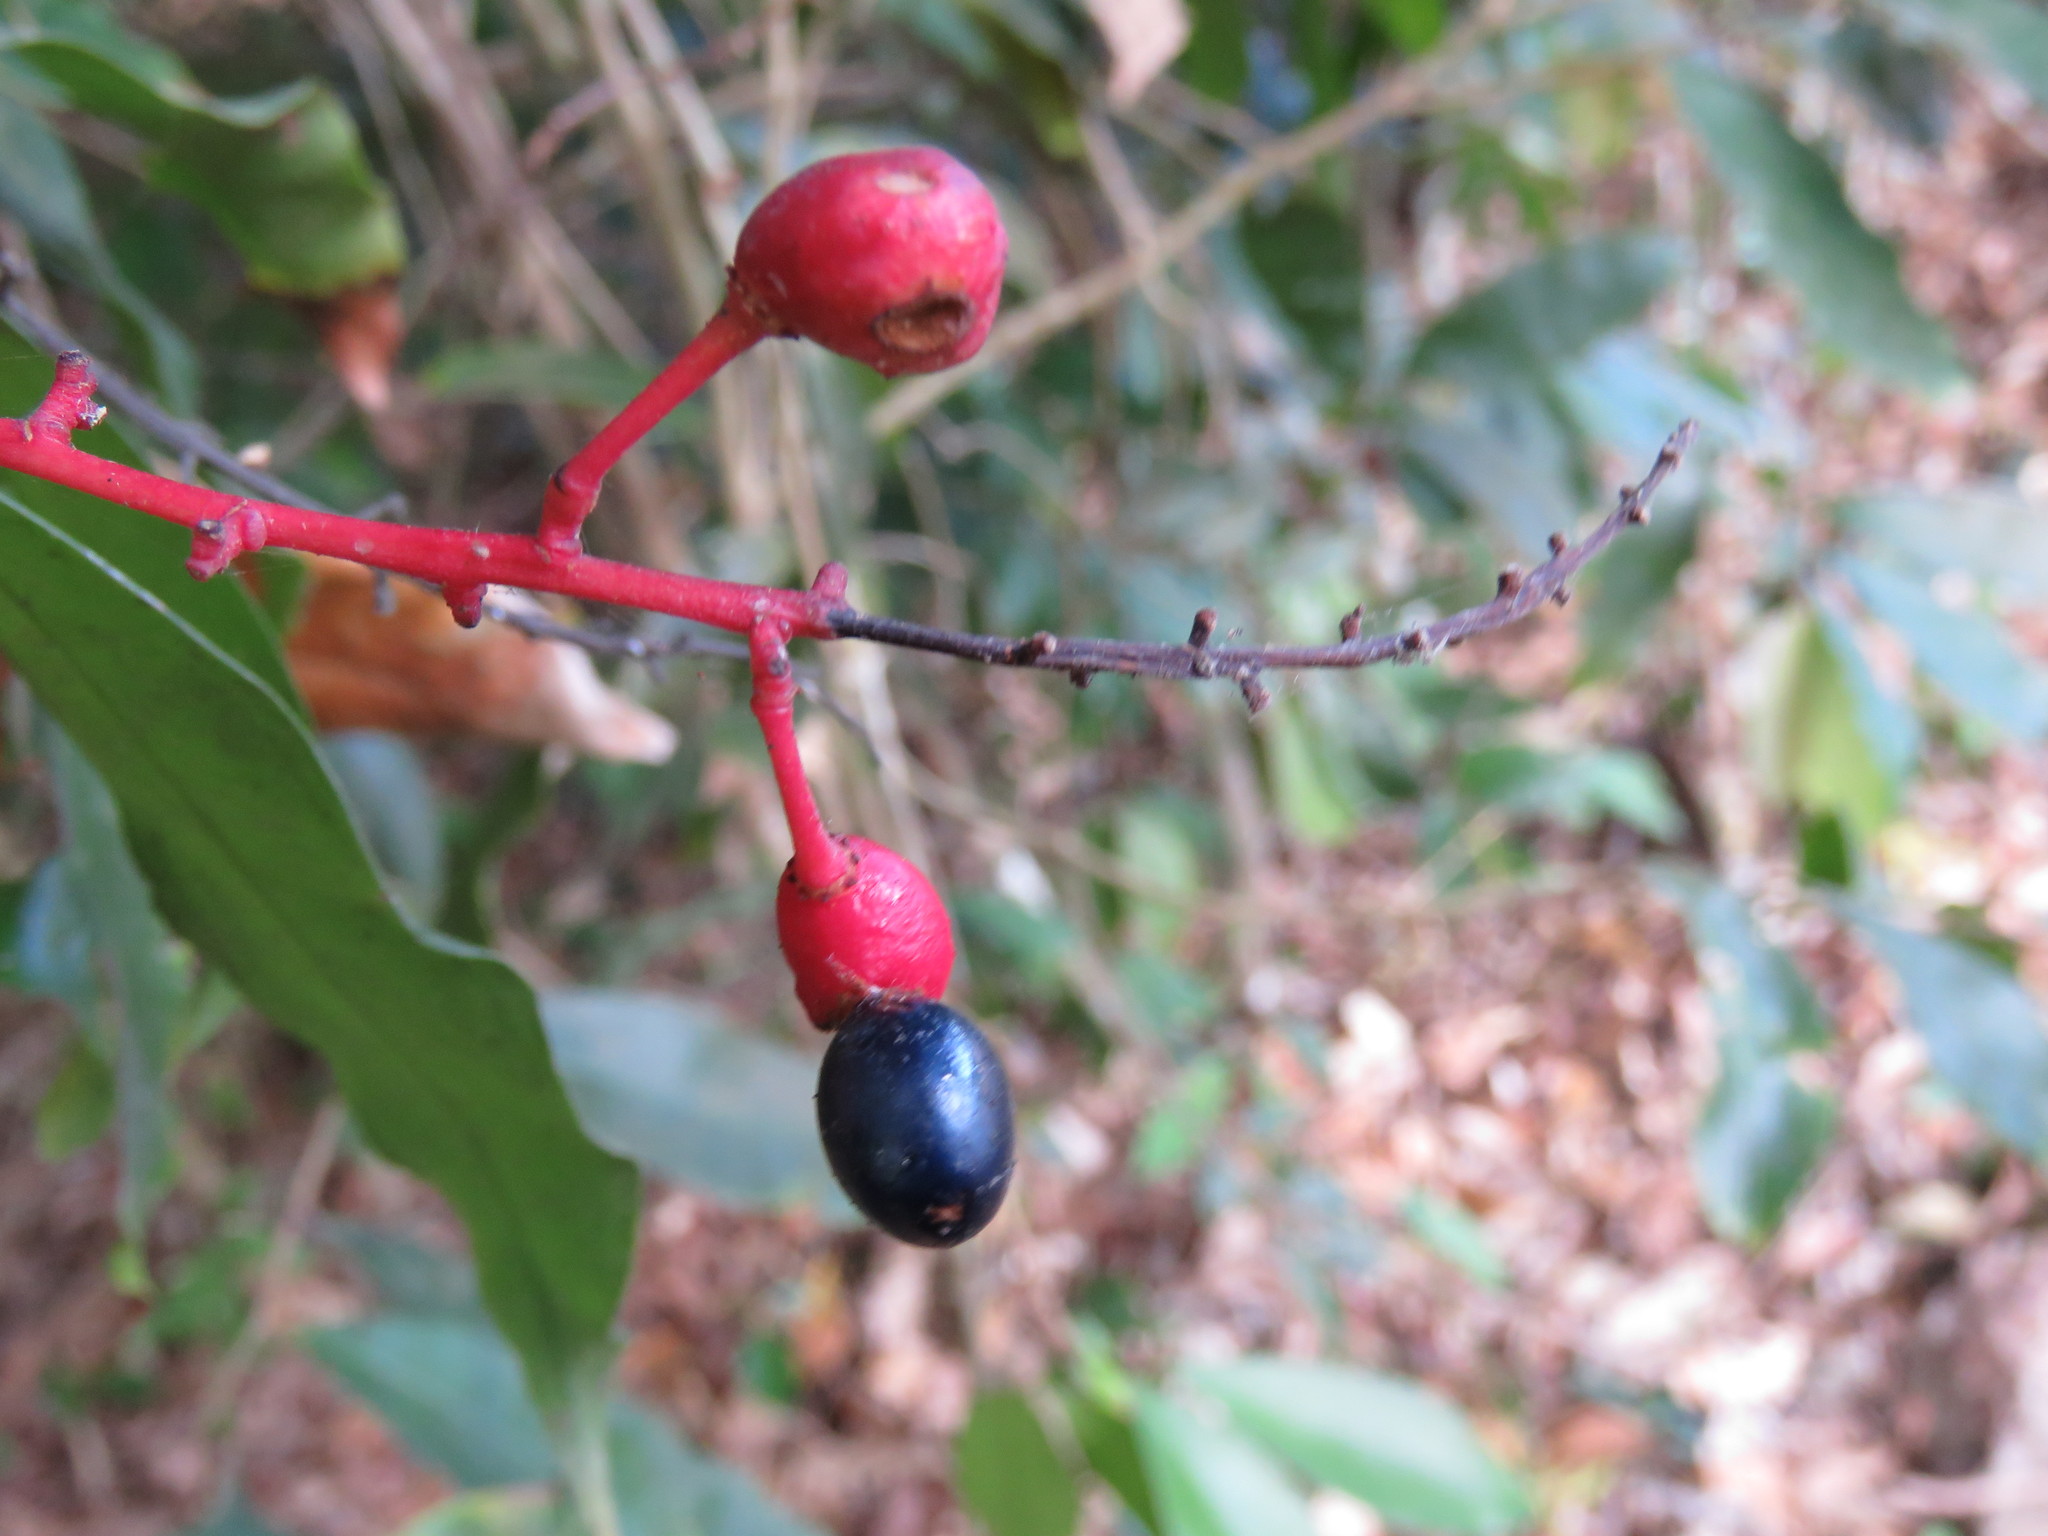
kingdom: Plantae
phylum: Tracheophyta
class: Magnoliopsida
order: Malpighiales
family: Ochnaceae
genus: Ouratea
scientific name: Ouratea lucens
